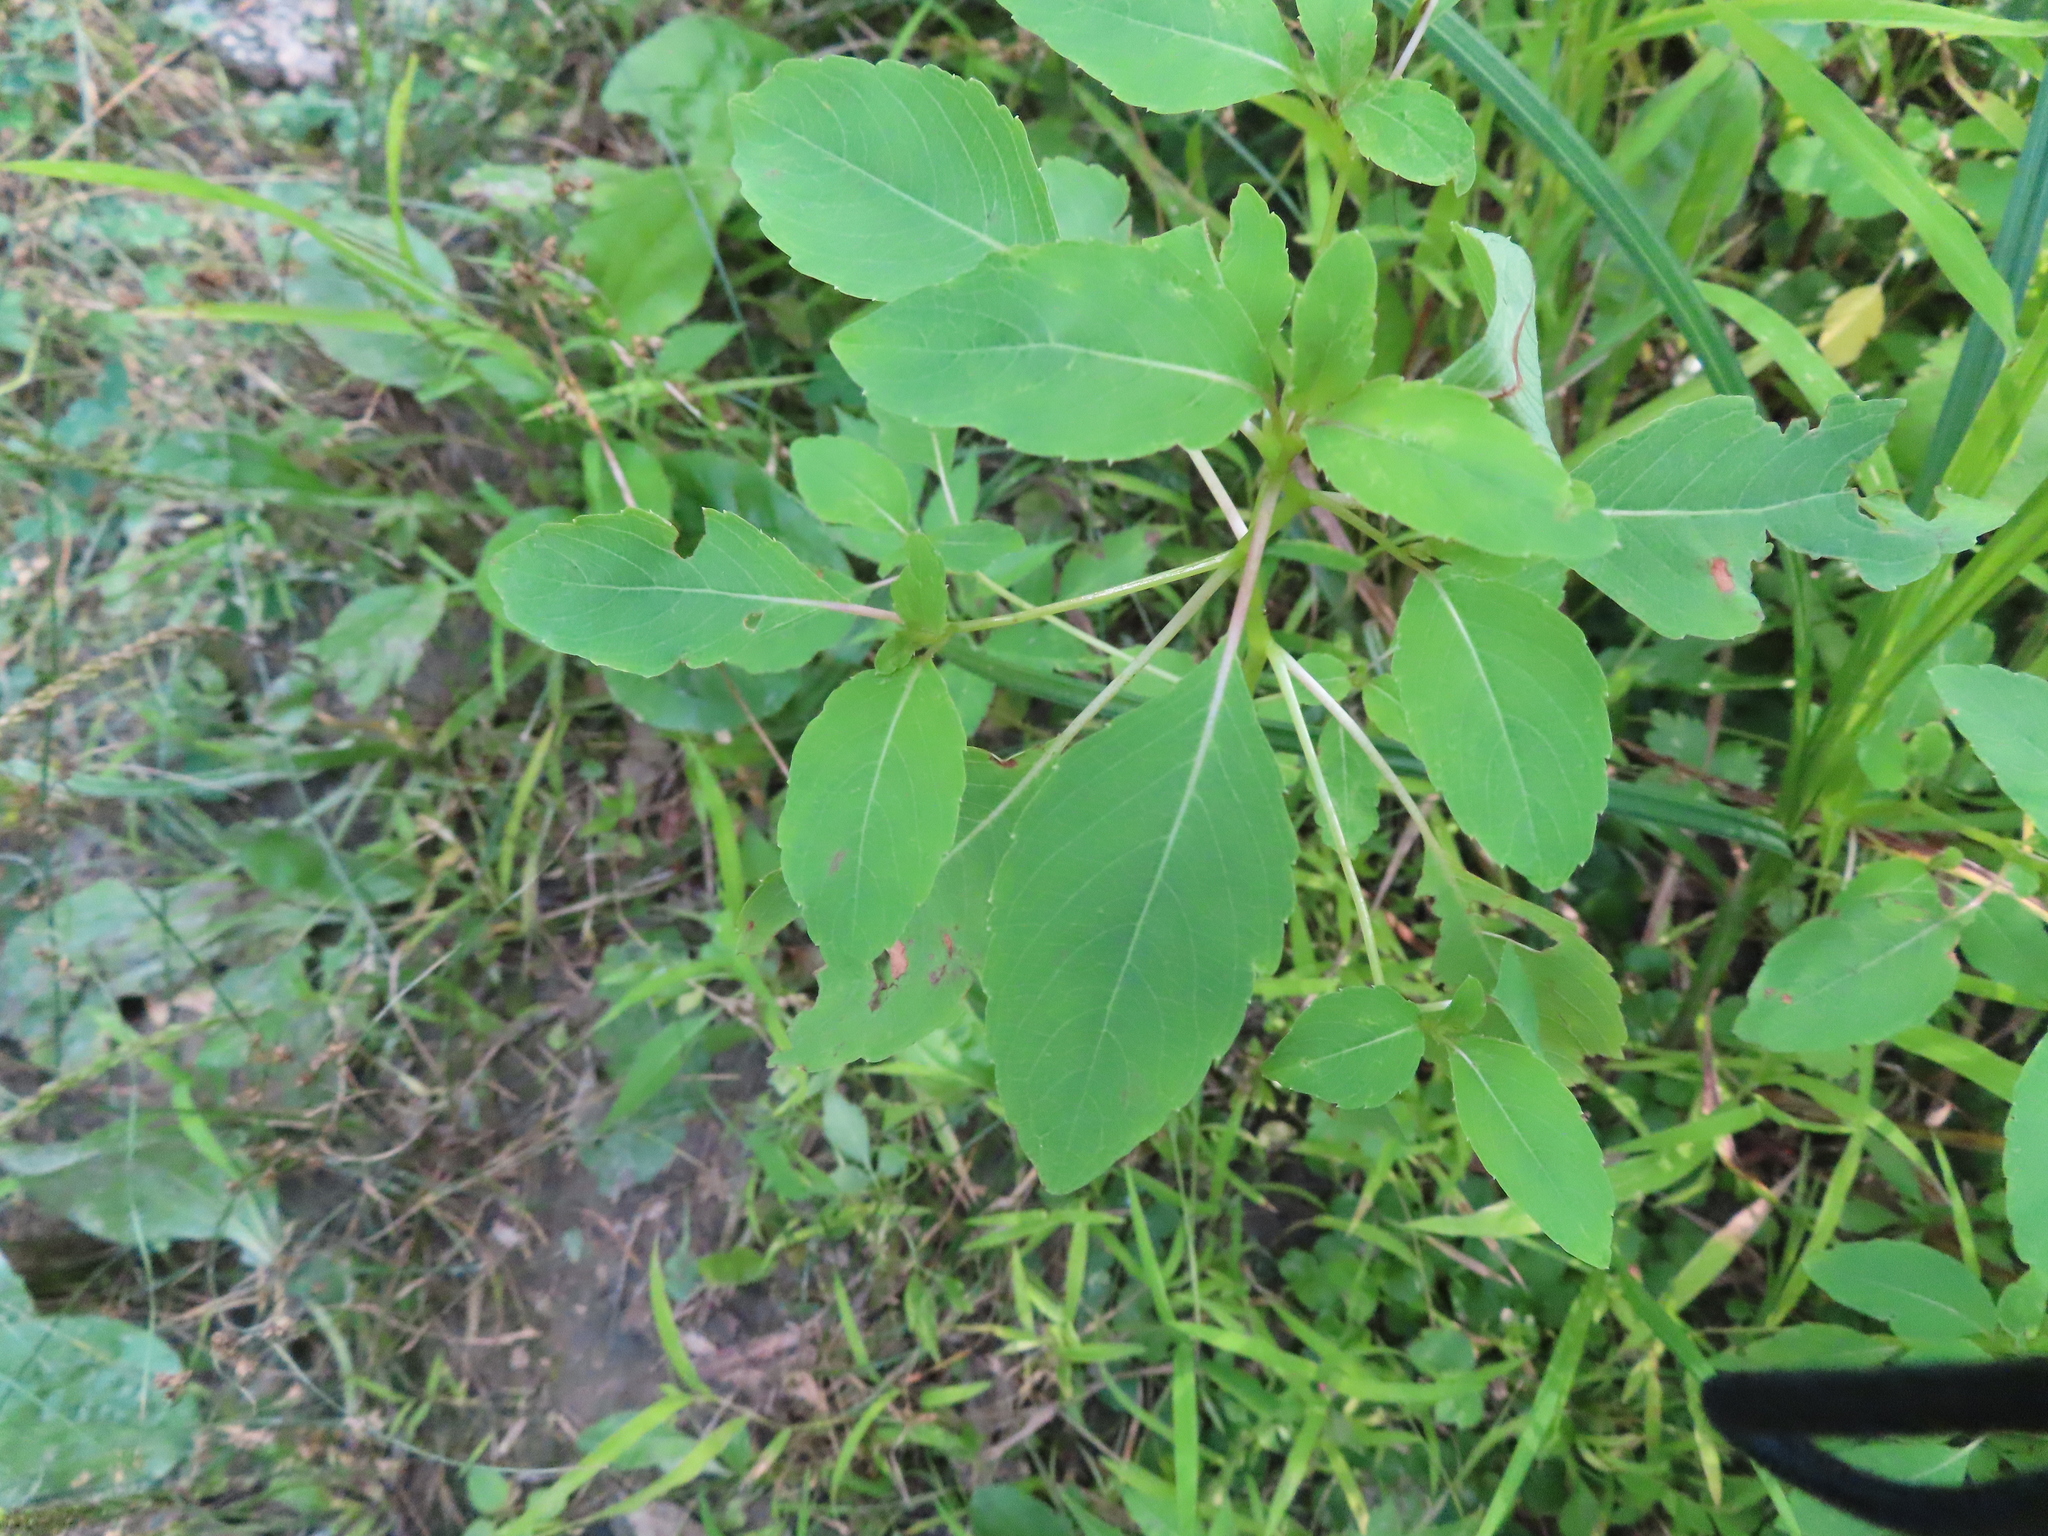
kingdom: Plantae
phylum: Tracheophyta
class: Magnoliopsida
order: Ericales
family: Balsaminaceae
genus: Impatiens
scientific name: Impatiens capensis
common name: Orange balsam
